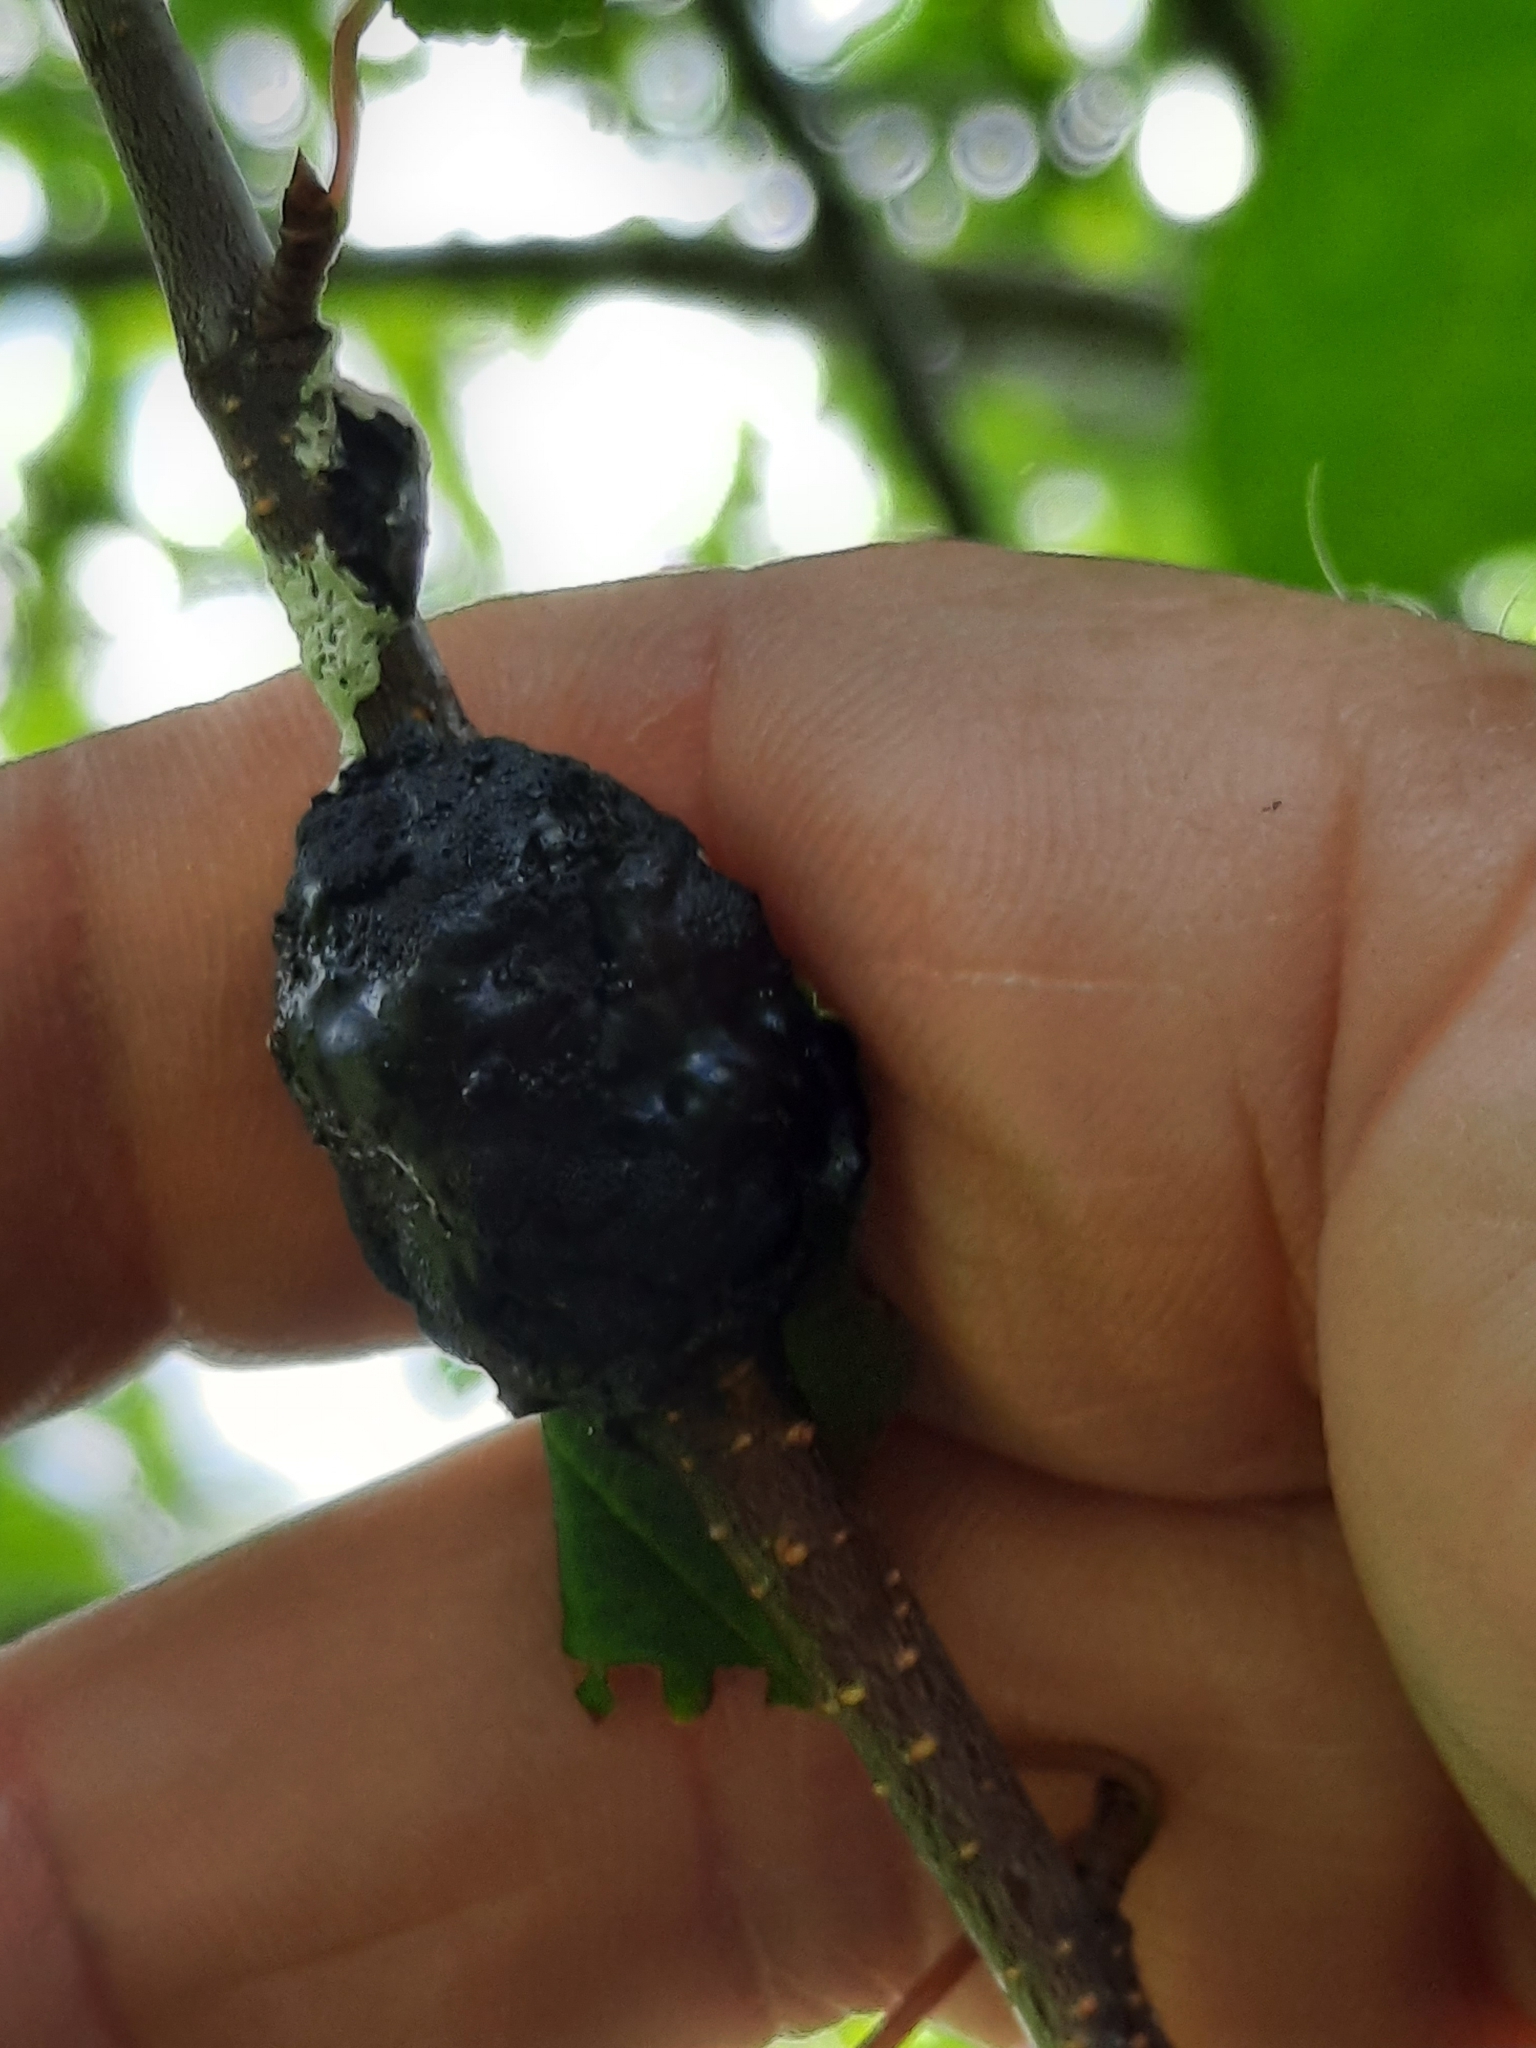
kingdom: Fungi
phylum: Ascomycota
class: Dothideomycetes
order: Venturiales
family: Venturiaceae
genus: Apiosporina
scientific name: Apiosporina morbosa
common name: Black knot
